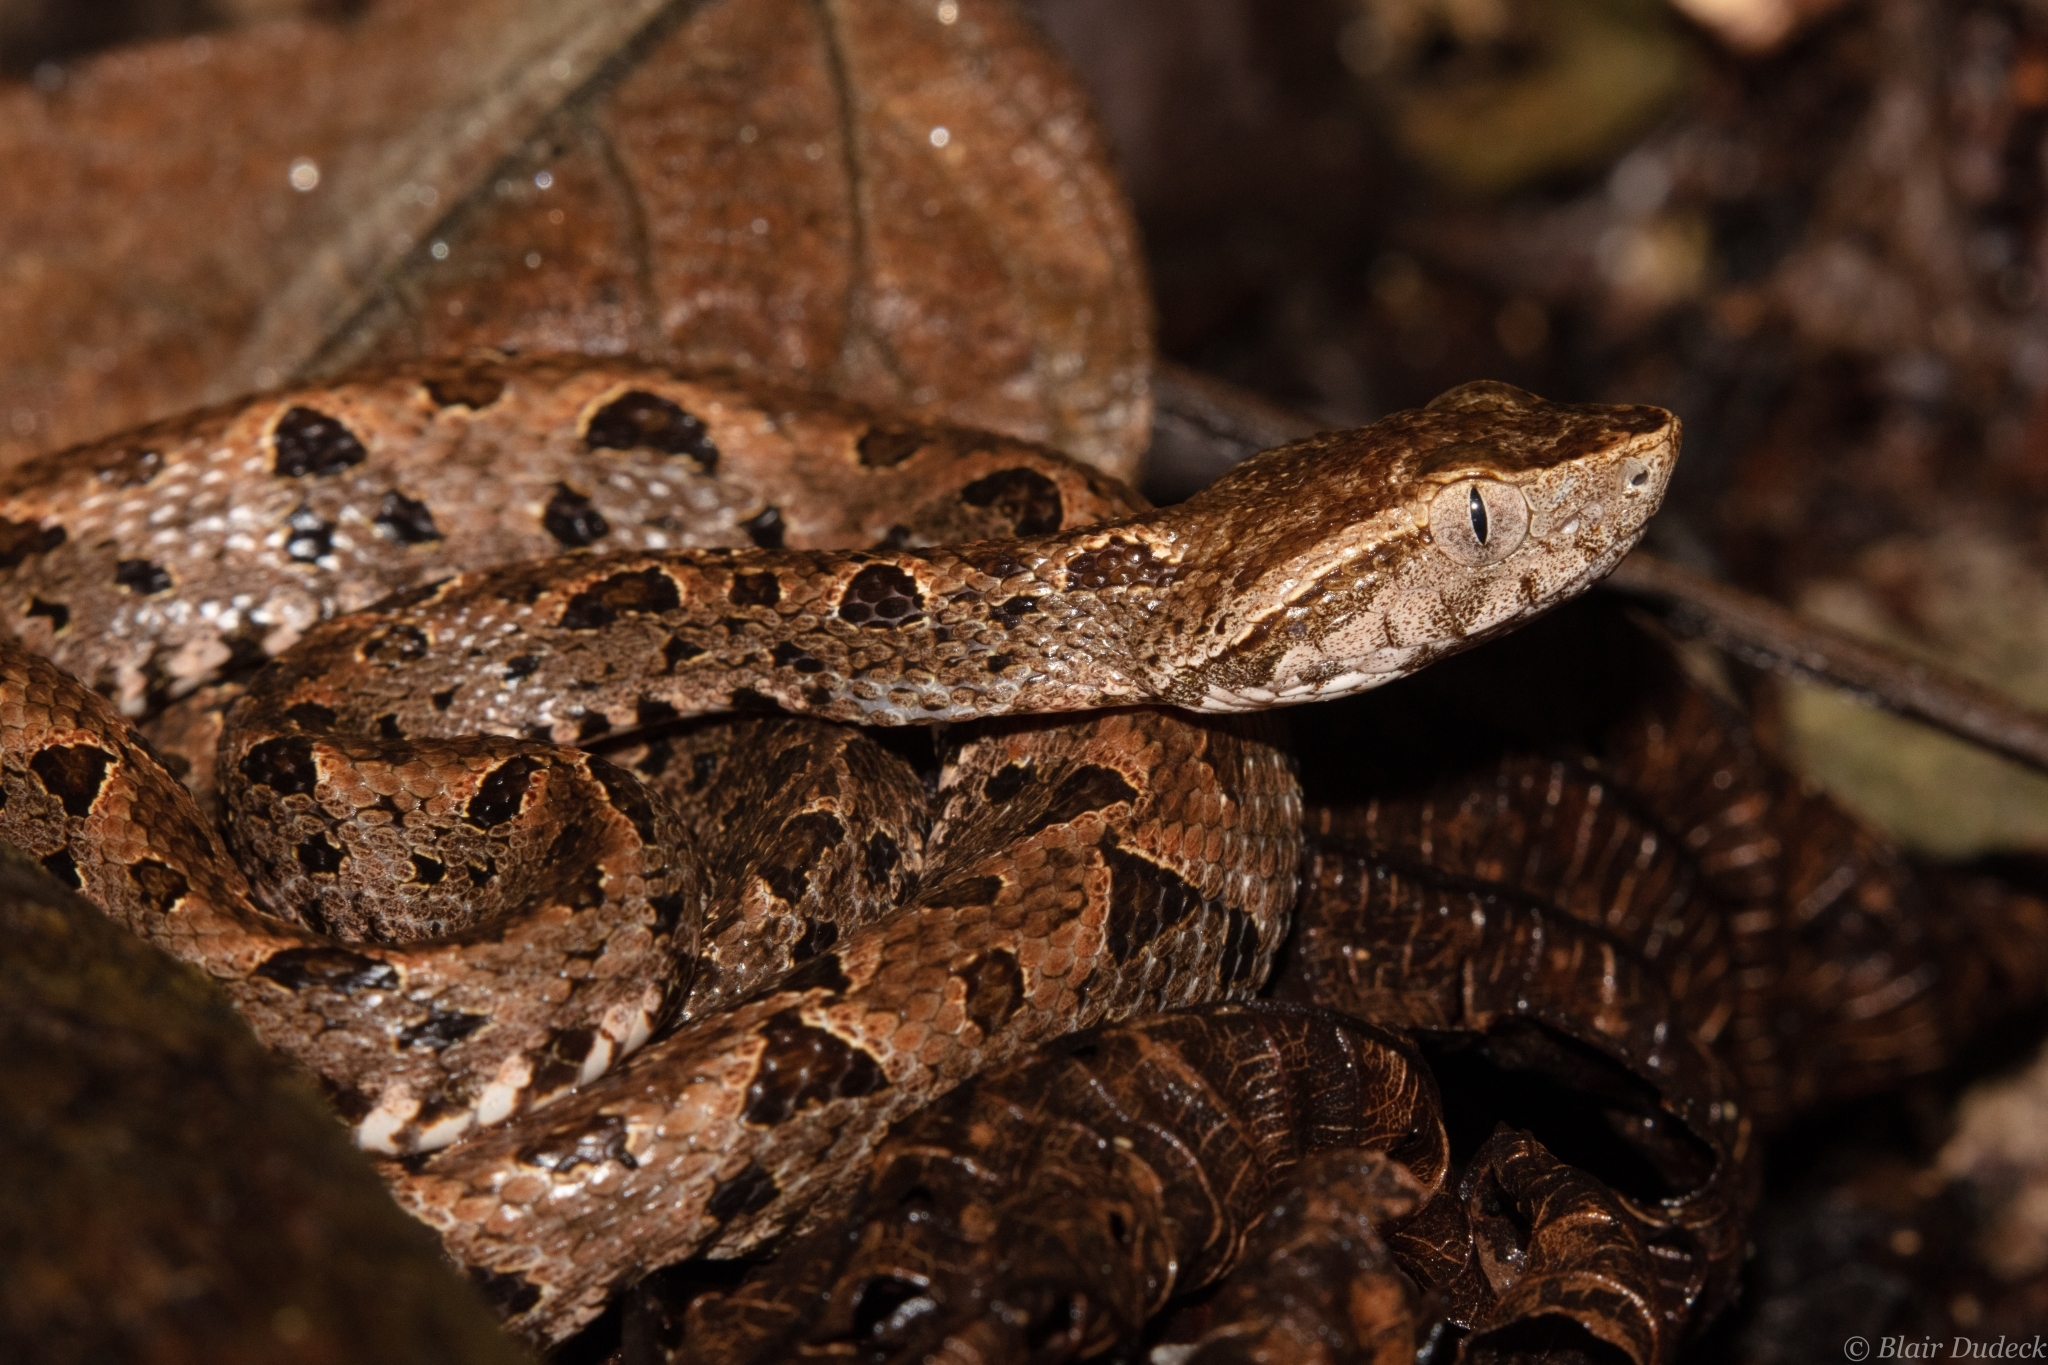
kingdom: Animalia
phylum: Chordata
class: Squamata
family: Viperidae
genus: Bothrops
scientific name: Bothrops asper
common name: Terciopelo
